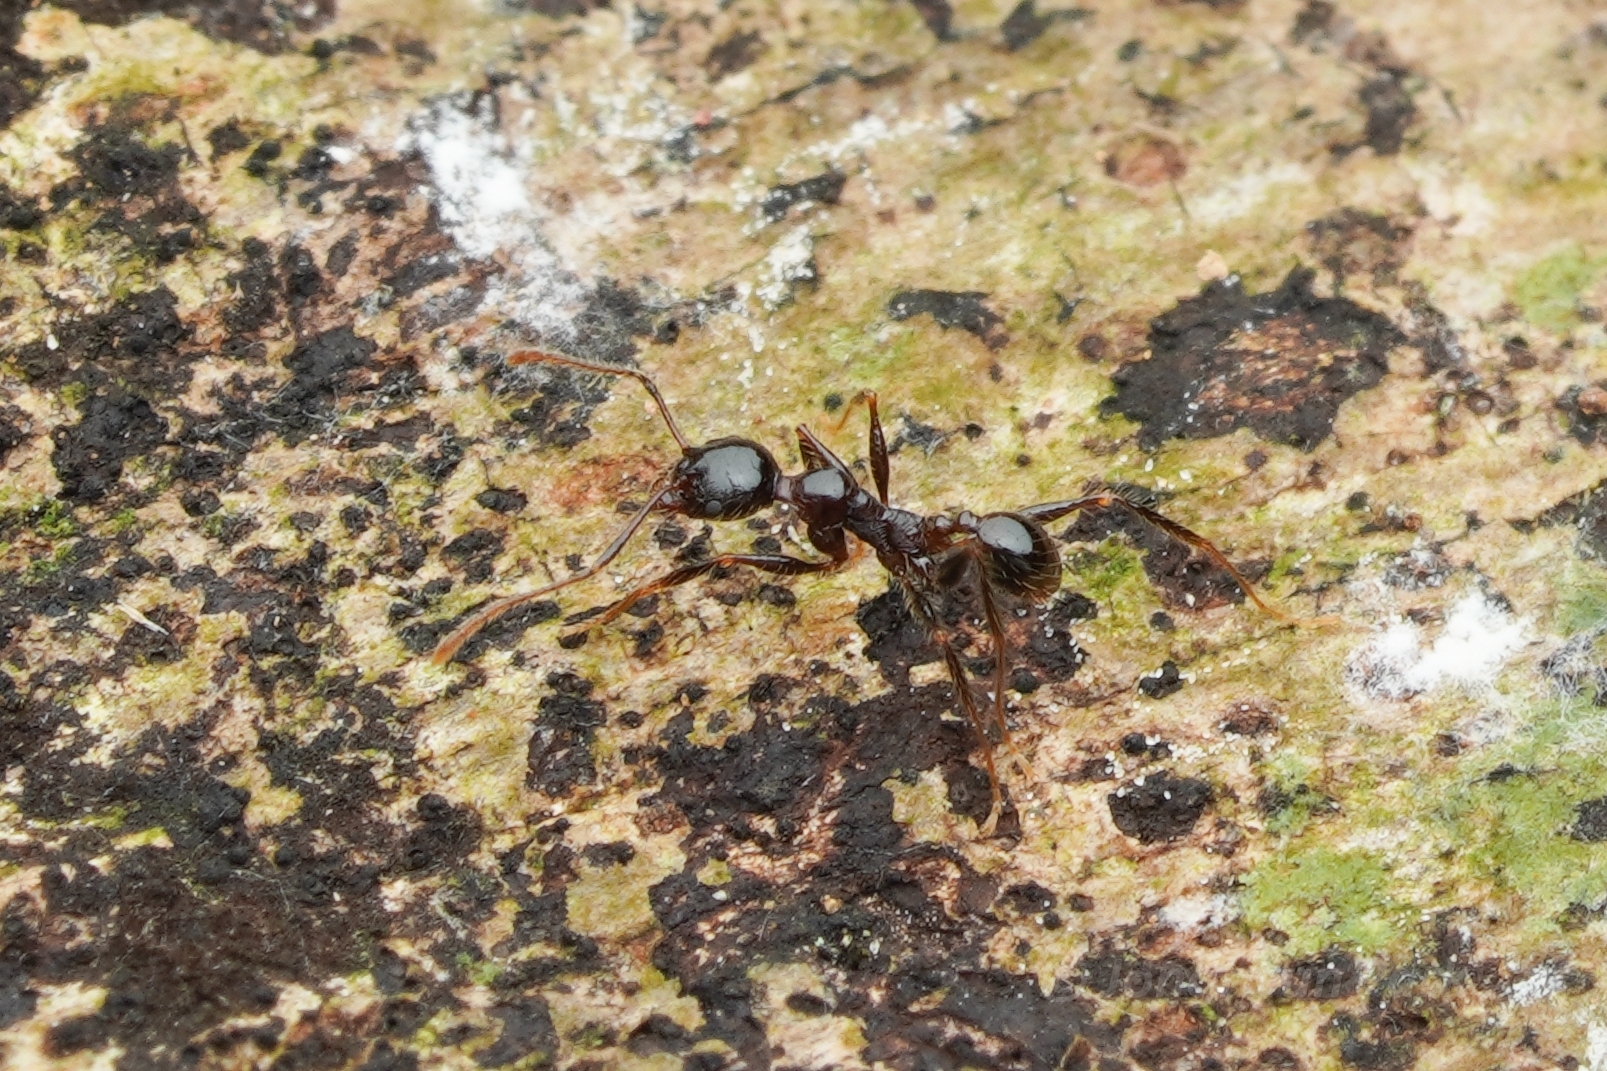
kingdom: Animalia
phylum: Arthropoda
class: Insecta
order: Hymenoptera
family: Formicidae
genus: Pheidole
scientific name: Pheidole plagiaria
